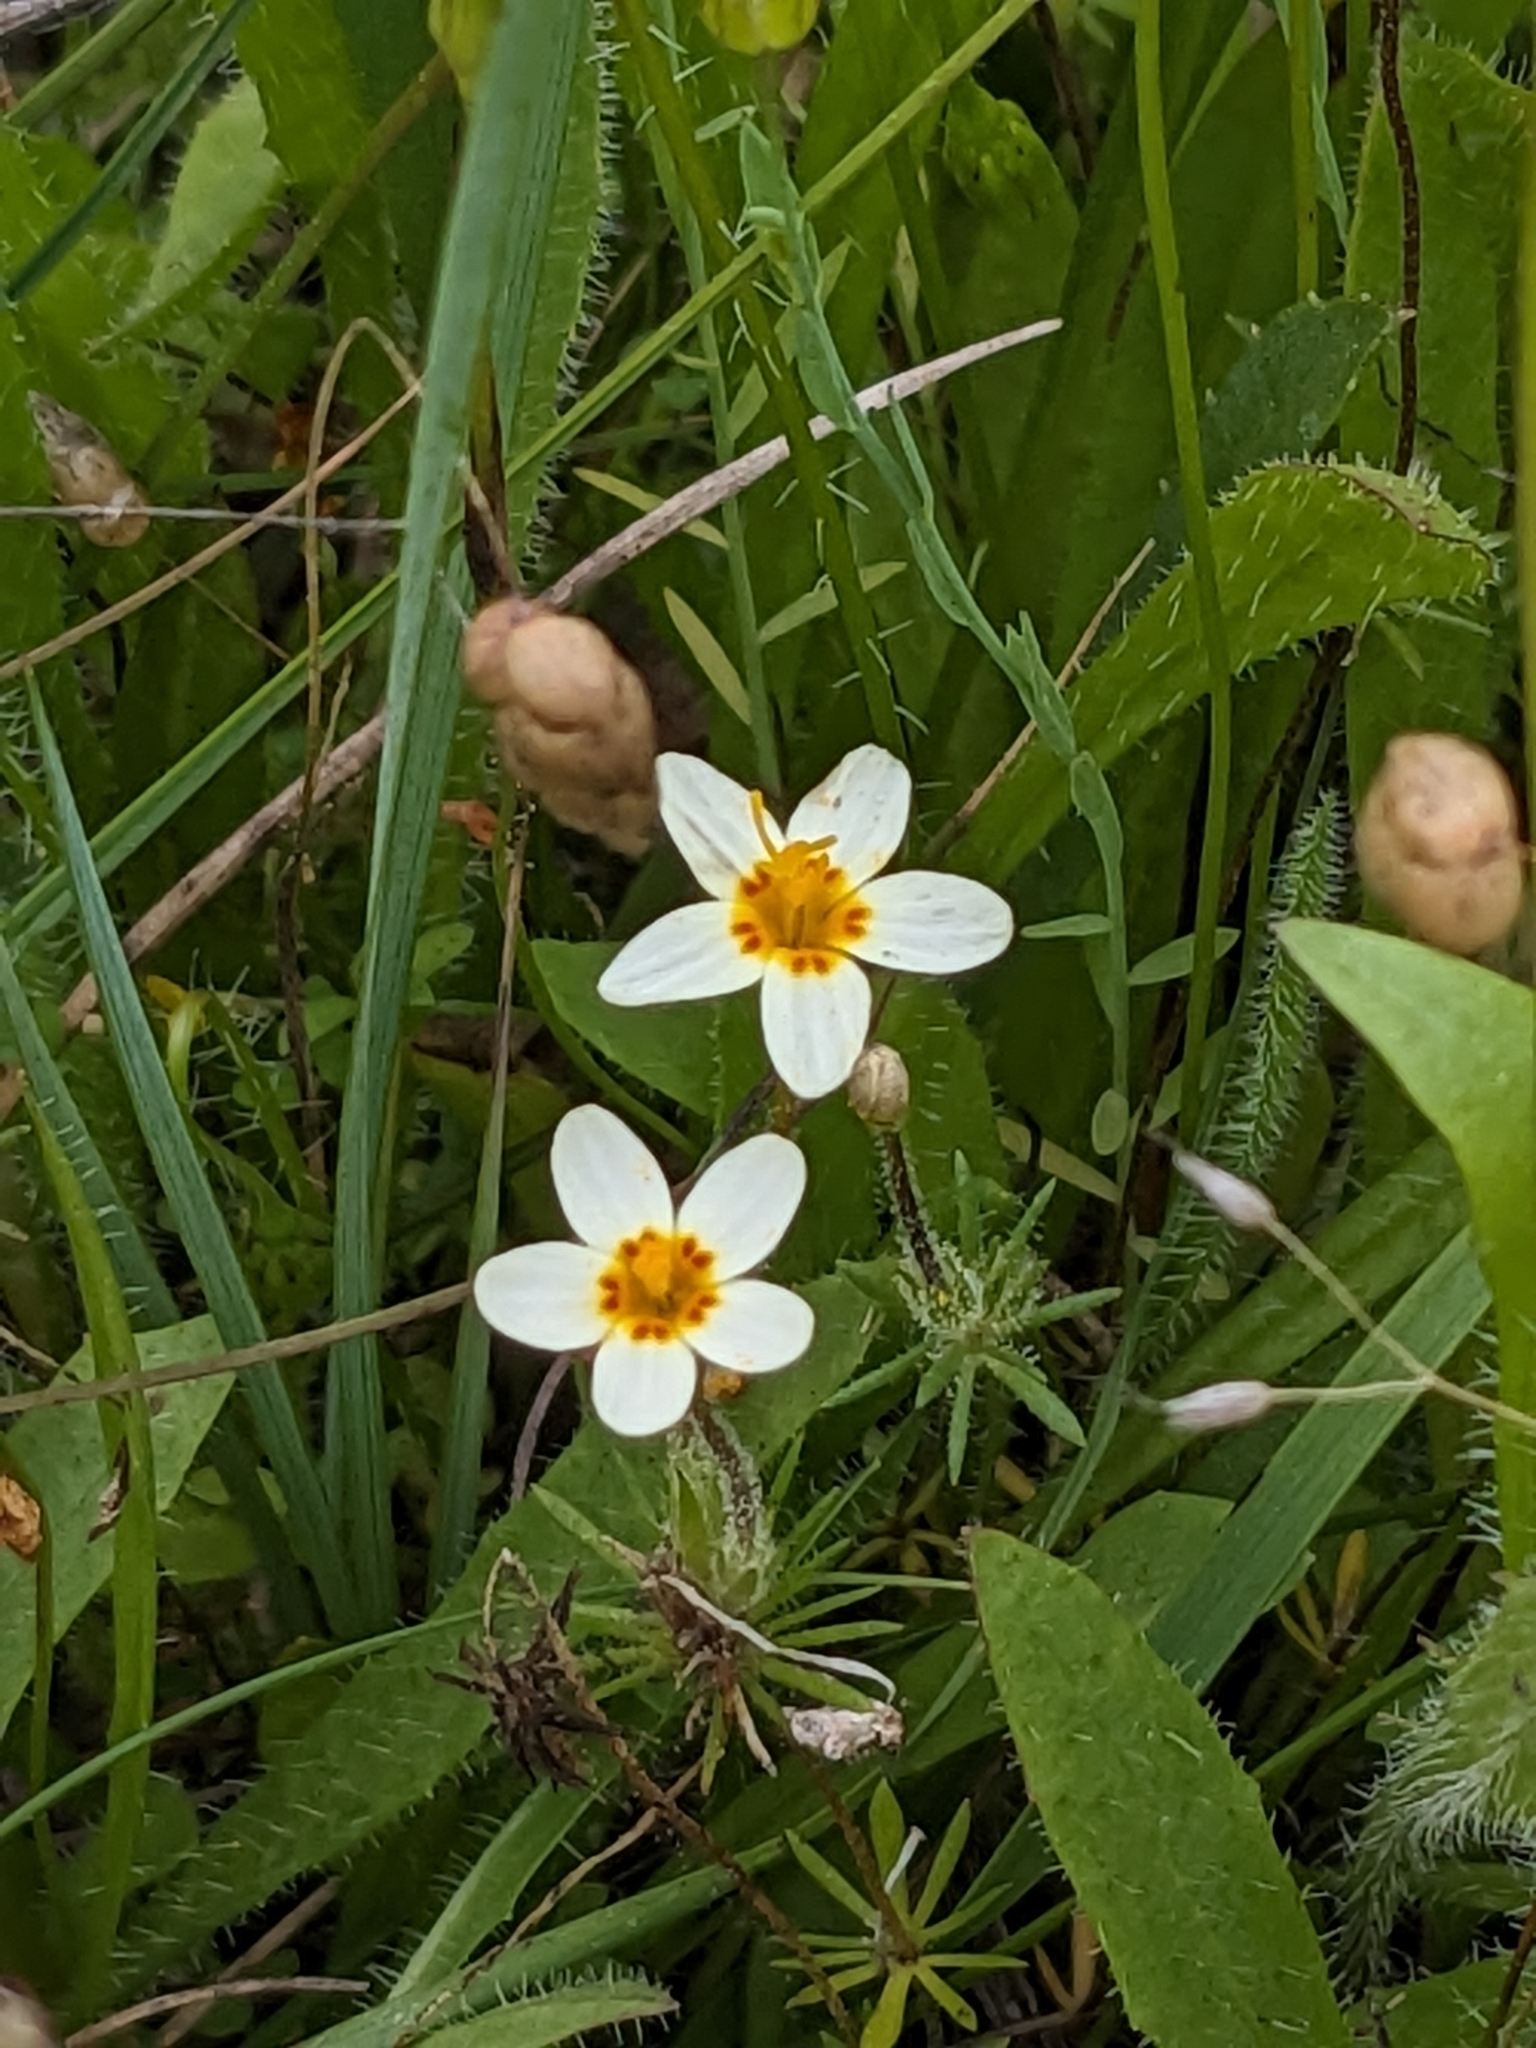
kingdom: Plantae
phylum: Tracheophyta
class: Magnoliopsida
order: Ericales
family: Polemoniaceae
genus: Leptosiphon
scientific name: Leptosiphon parviflorus
